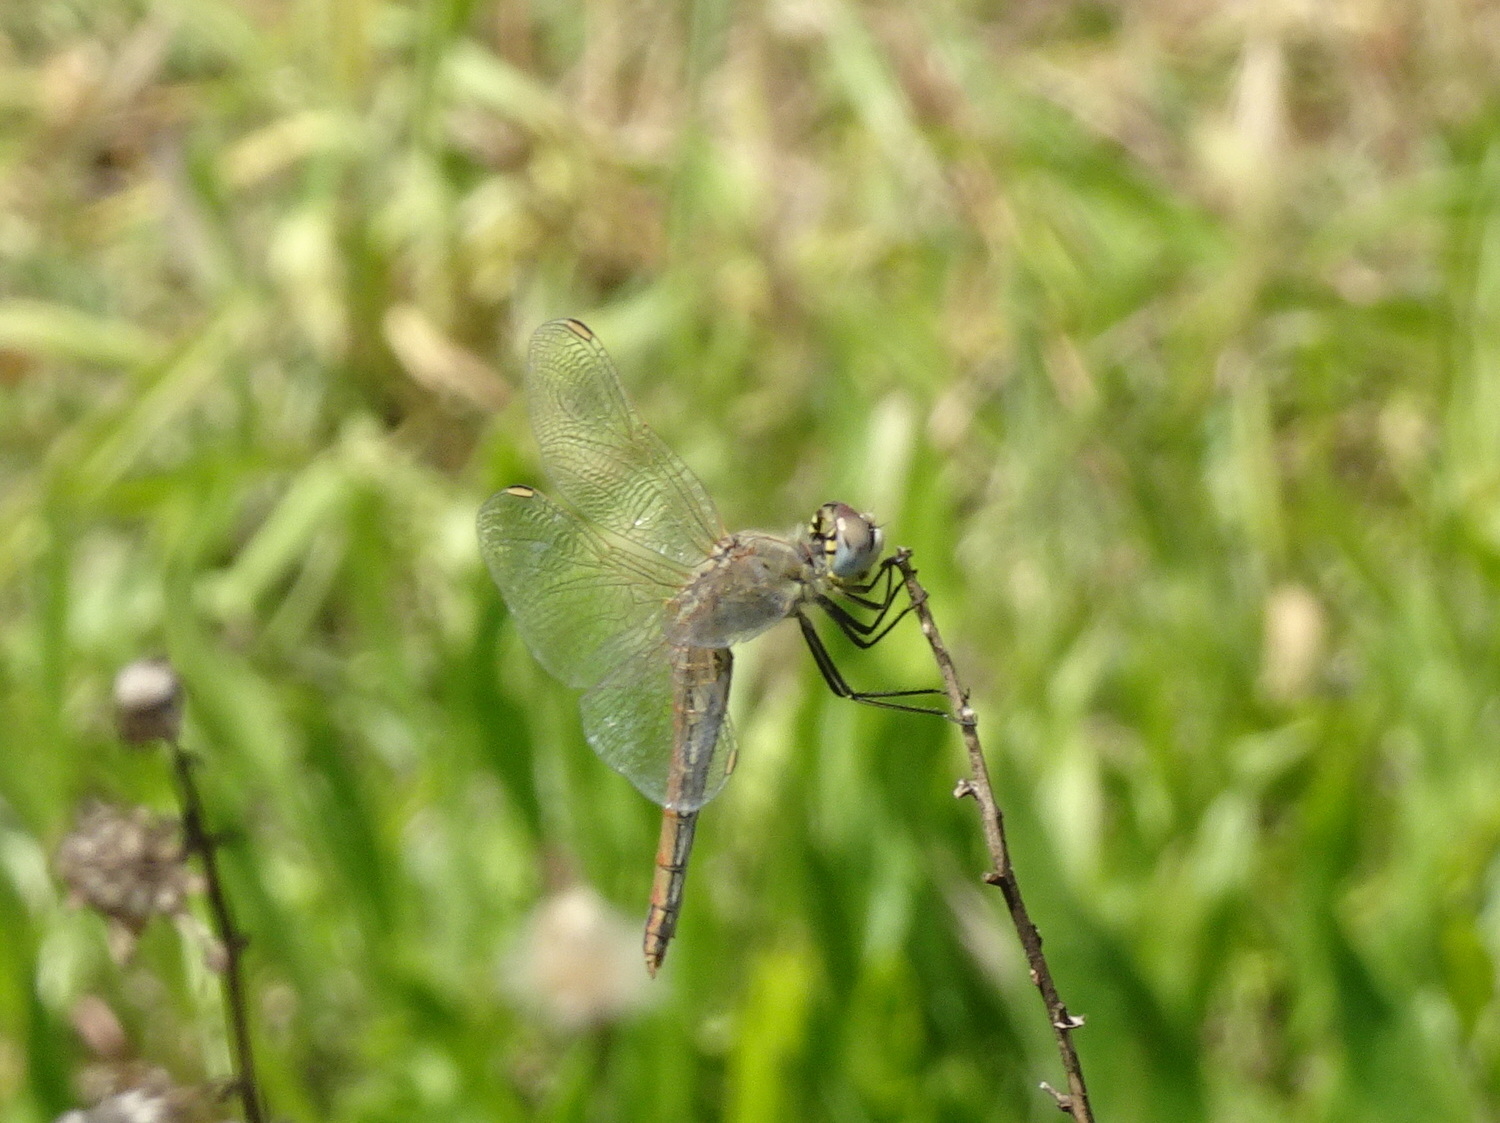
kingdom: Animalia
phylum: Arthropoda
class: Insecta
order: Odonata
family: Libellulidae
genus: Sympetrum
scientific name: Sympetrum fonscolombii
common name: Red-veined darter
